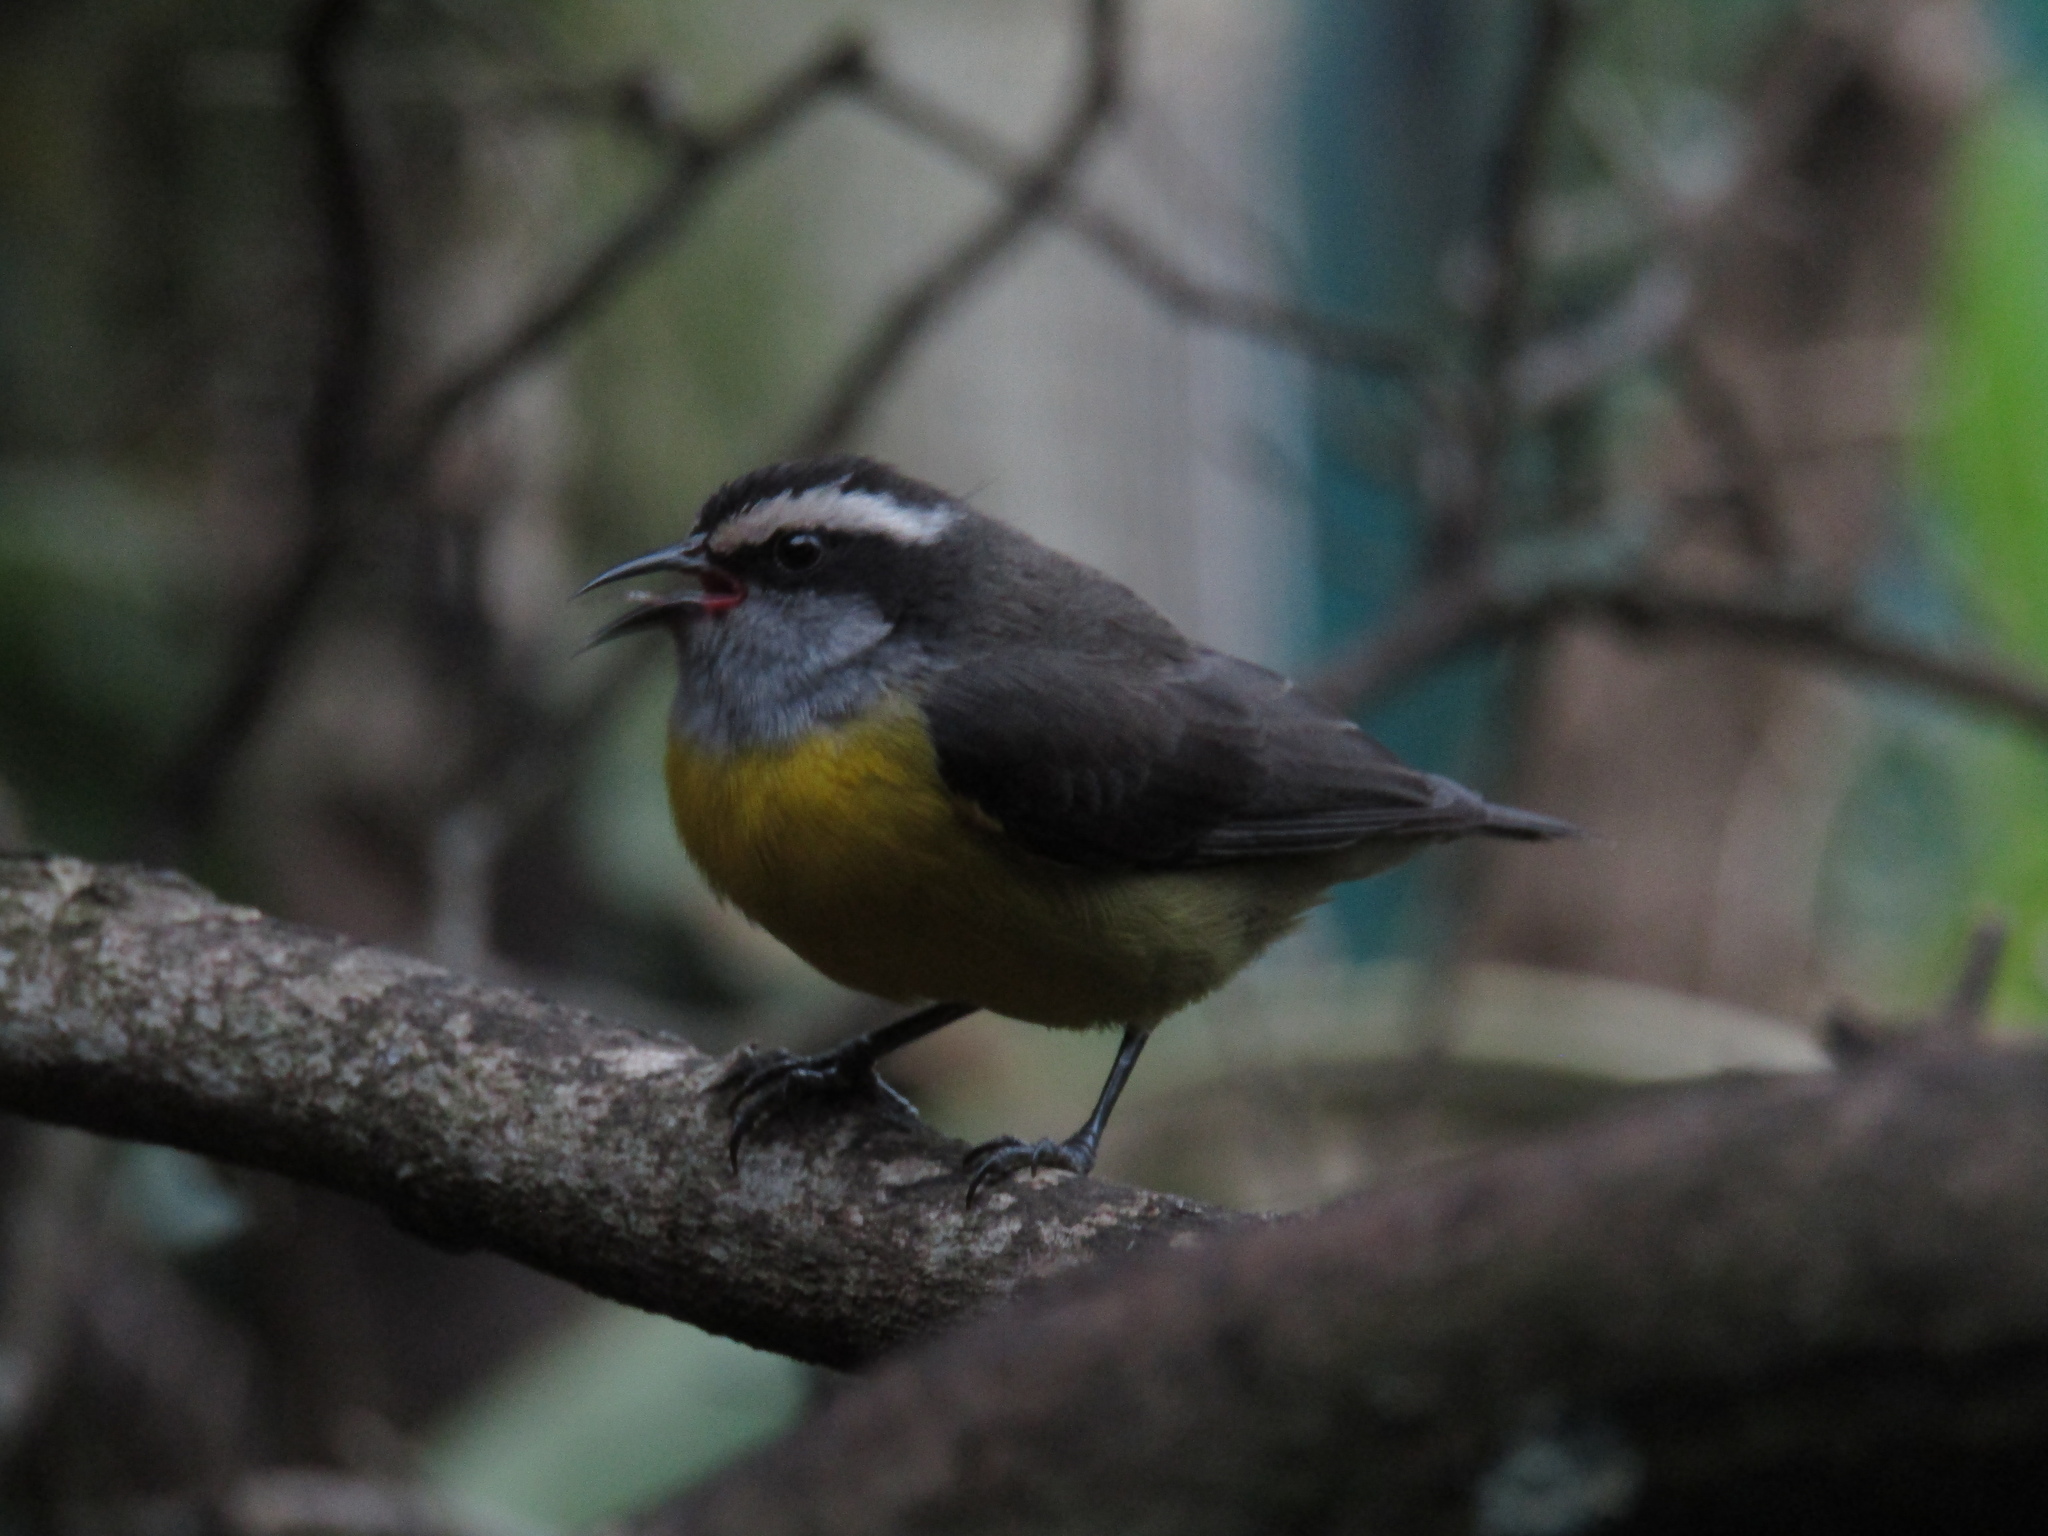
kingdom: Animalia
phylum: Chordata
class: Aves
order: Passeriformes
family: Thraupidae
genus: Coereba
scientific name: Coereba flaveola
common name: Bananaquit
